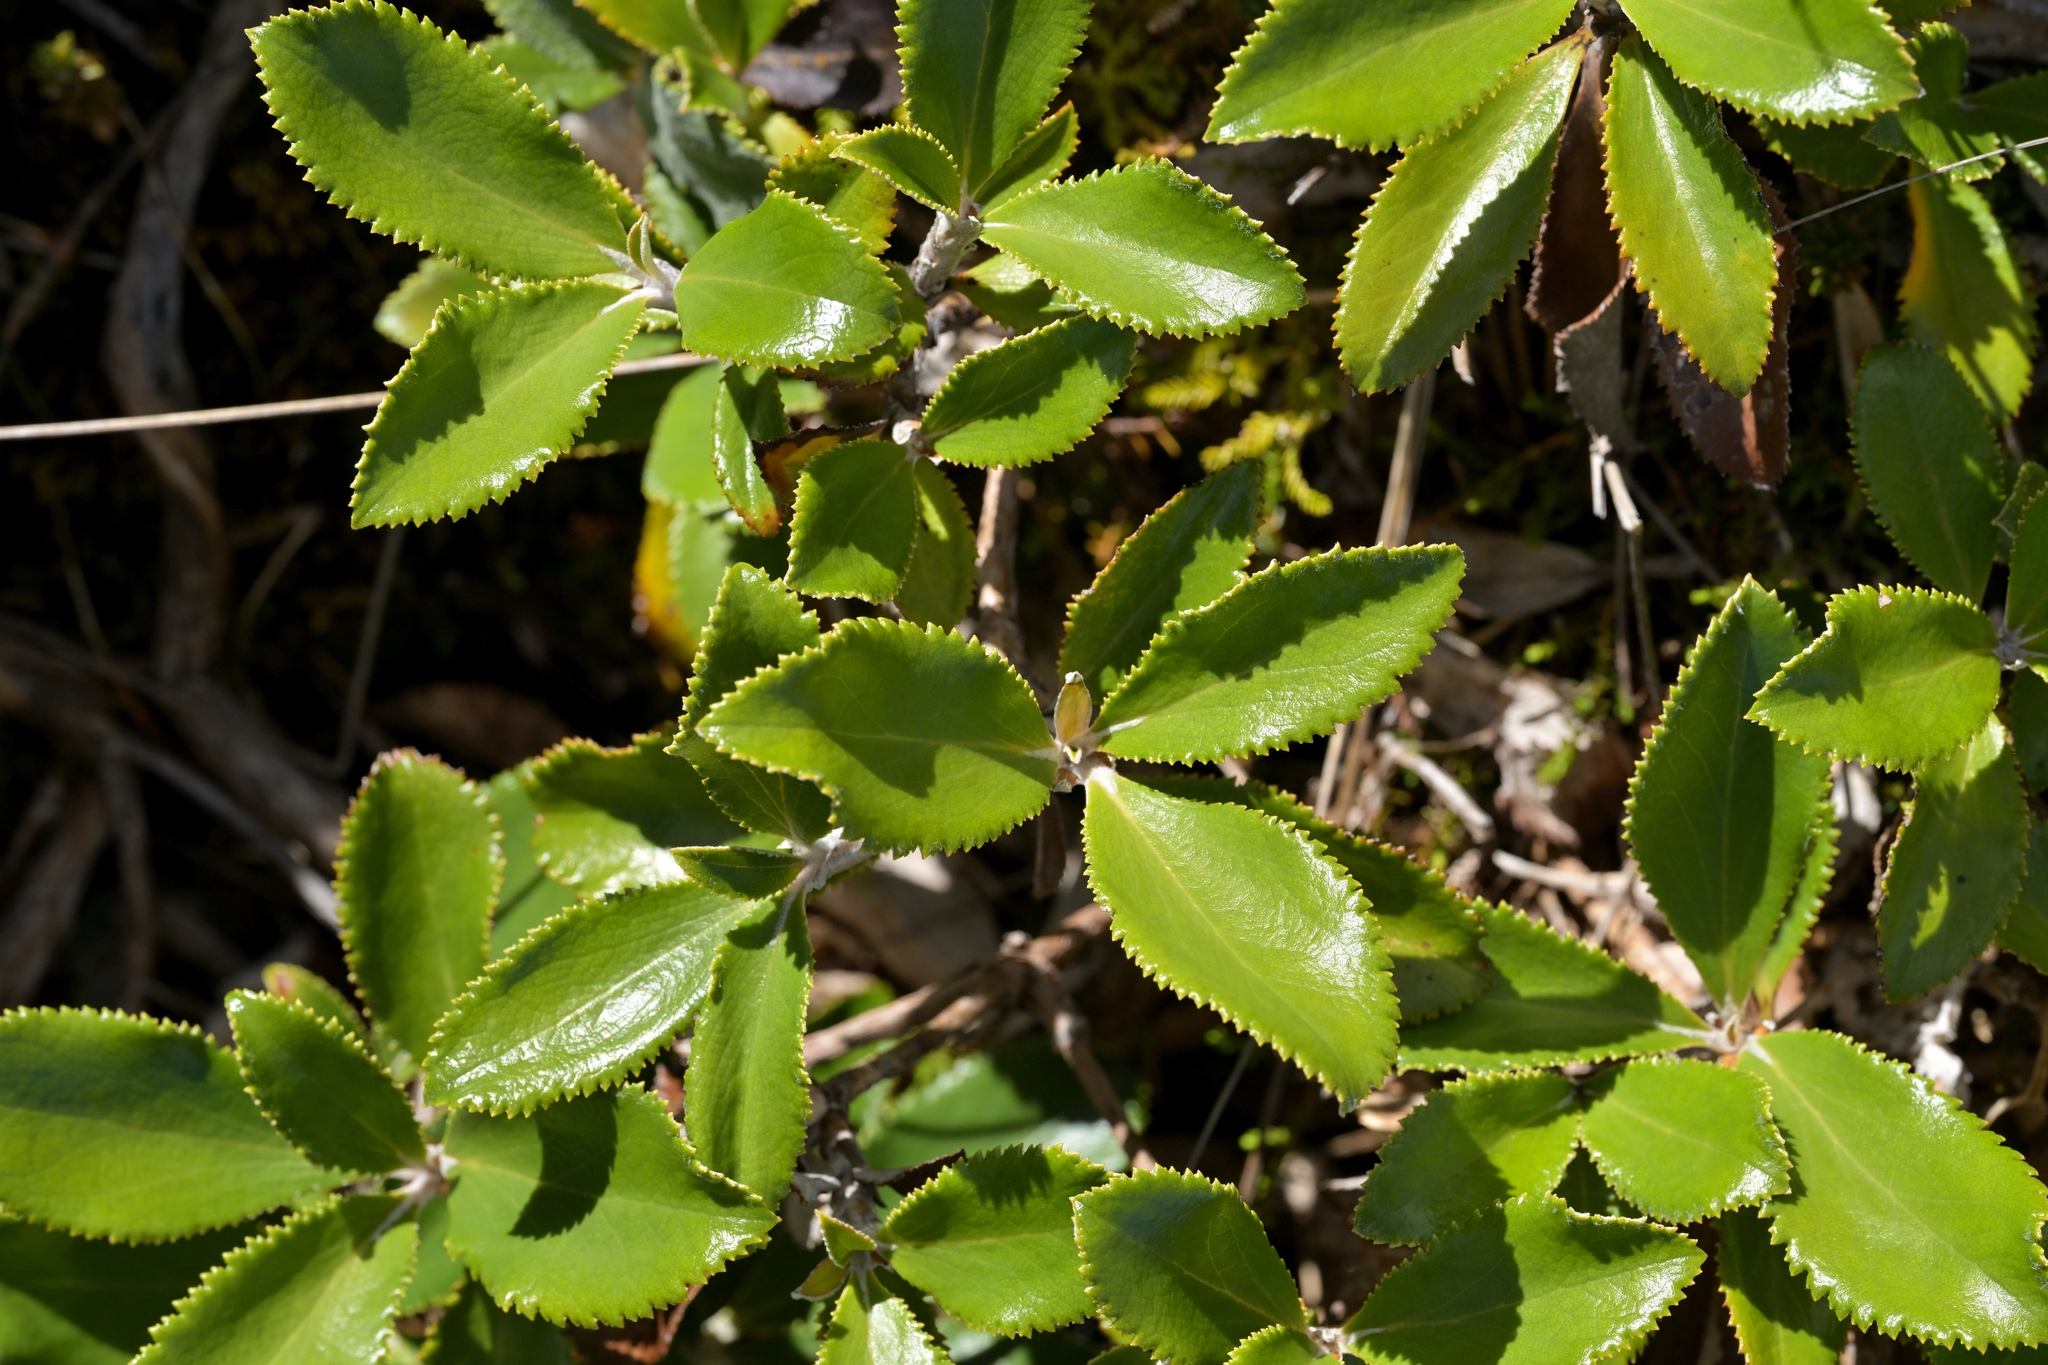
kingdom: Plantae
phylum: Tracheophyta
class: Magnoliopsida
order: Asterales
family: Asteraceae
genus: Macrolearia
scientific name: Macrolearia colensoi
